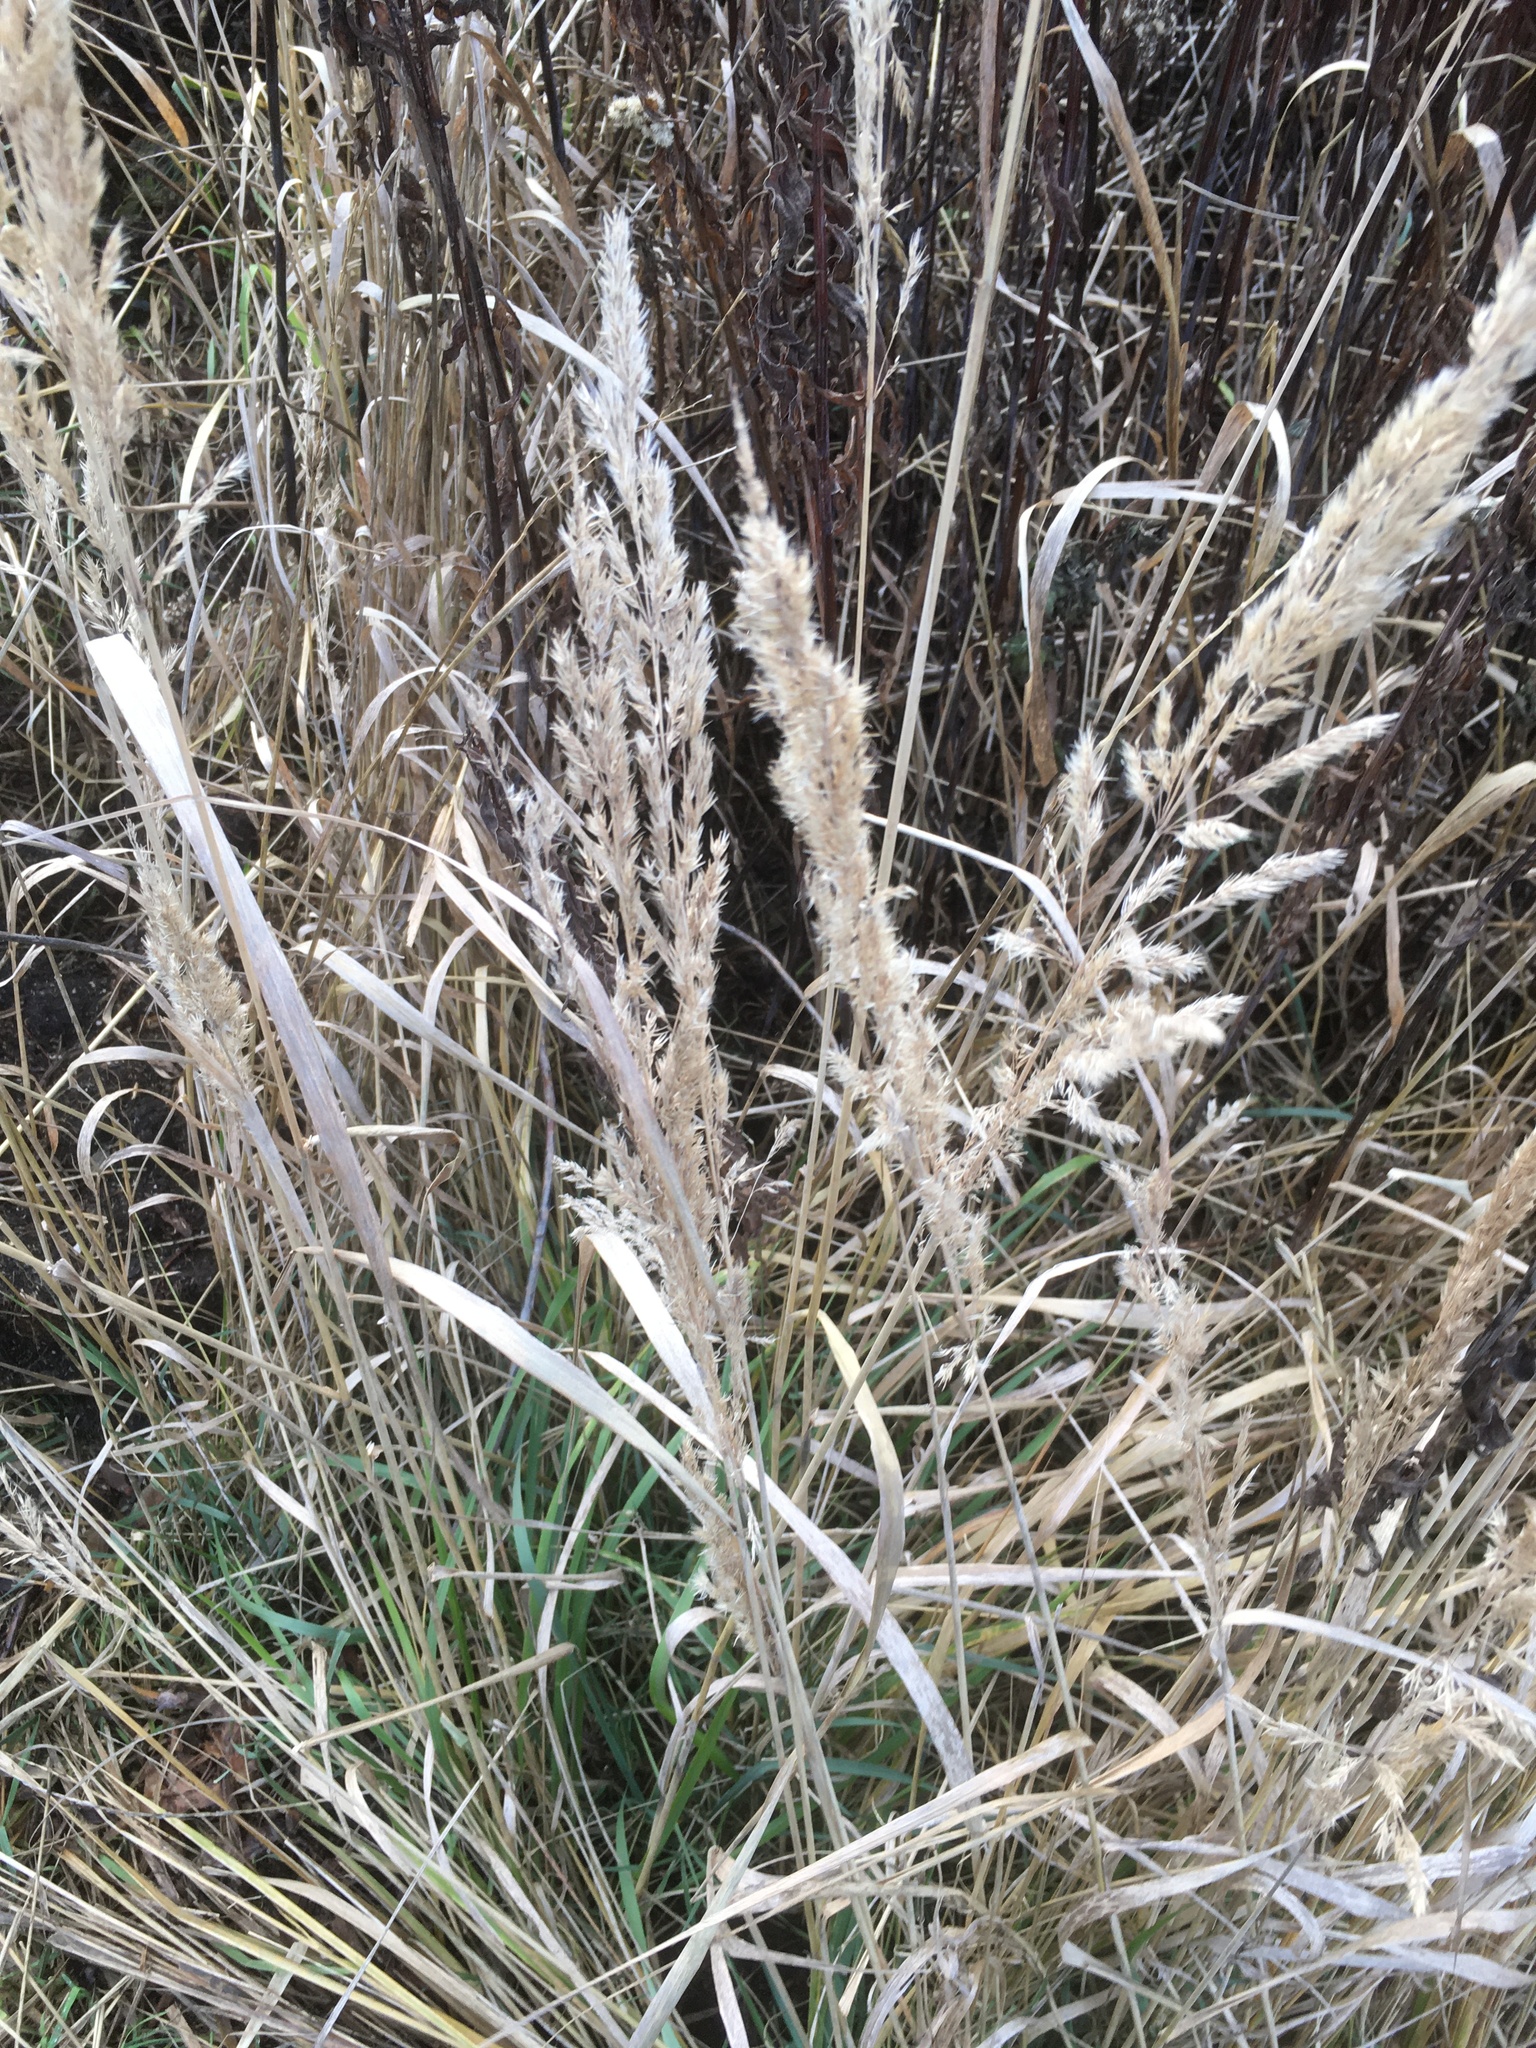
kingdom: Plantae
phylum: Tracheophyta
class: Liliopsida
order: Poales
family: Poaceae
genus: Calamagrostis
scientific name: Calamagrostis epigejos
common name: Wood small-reed
